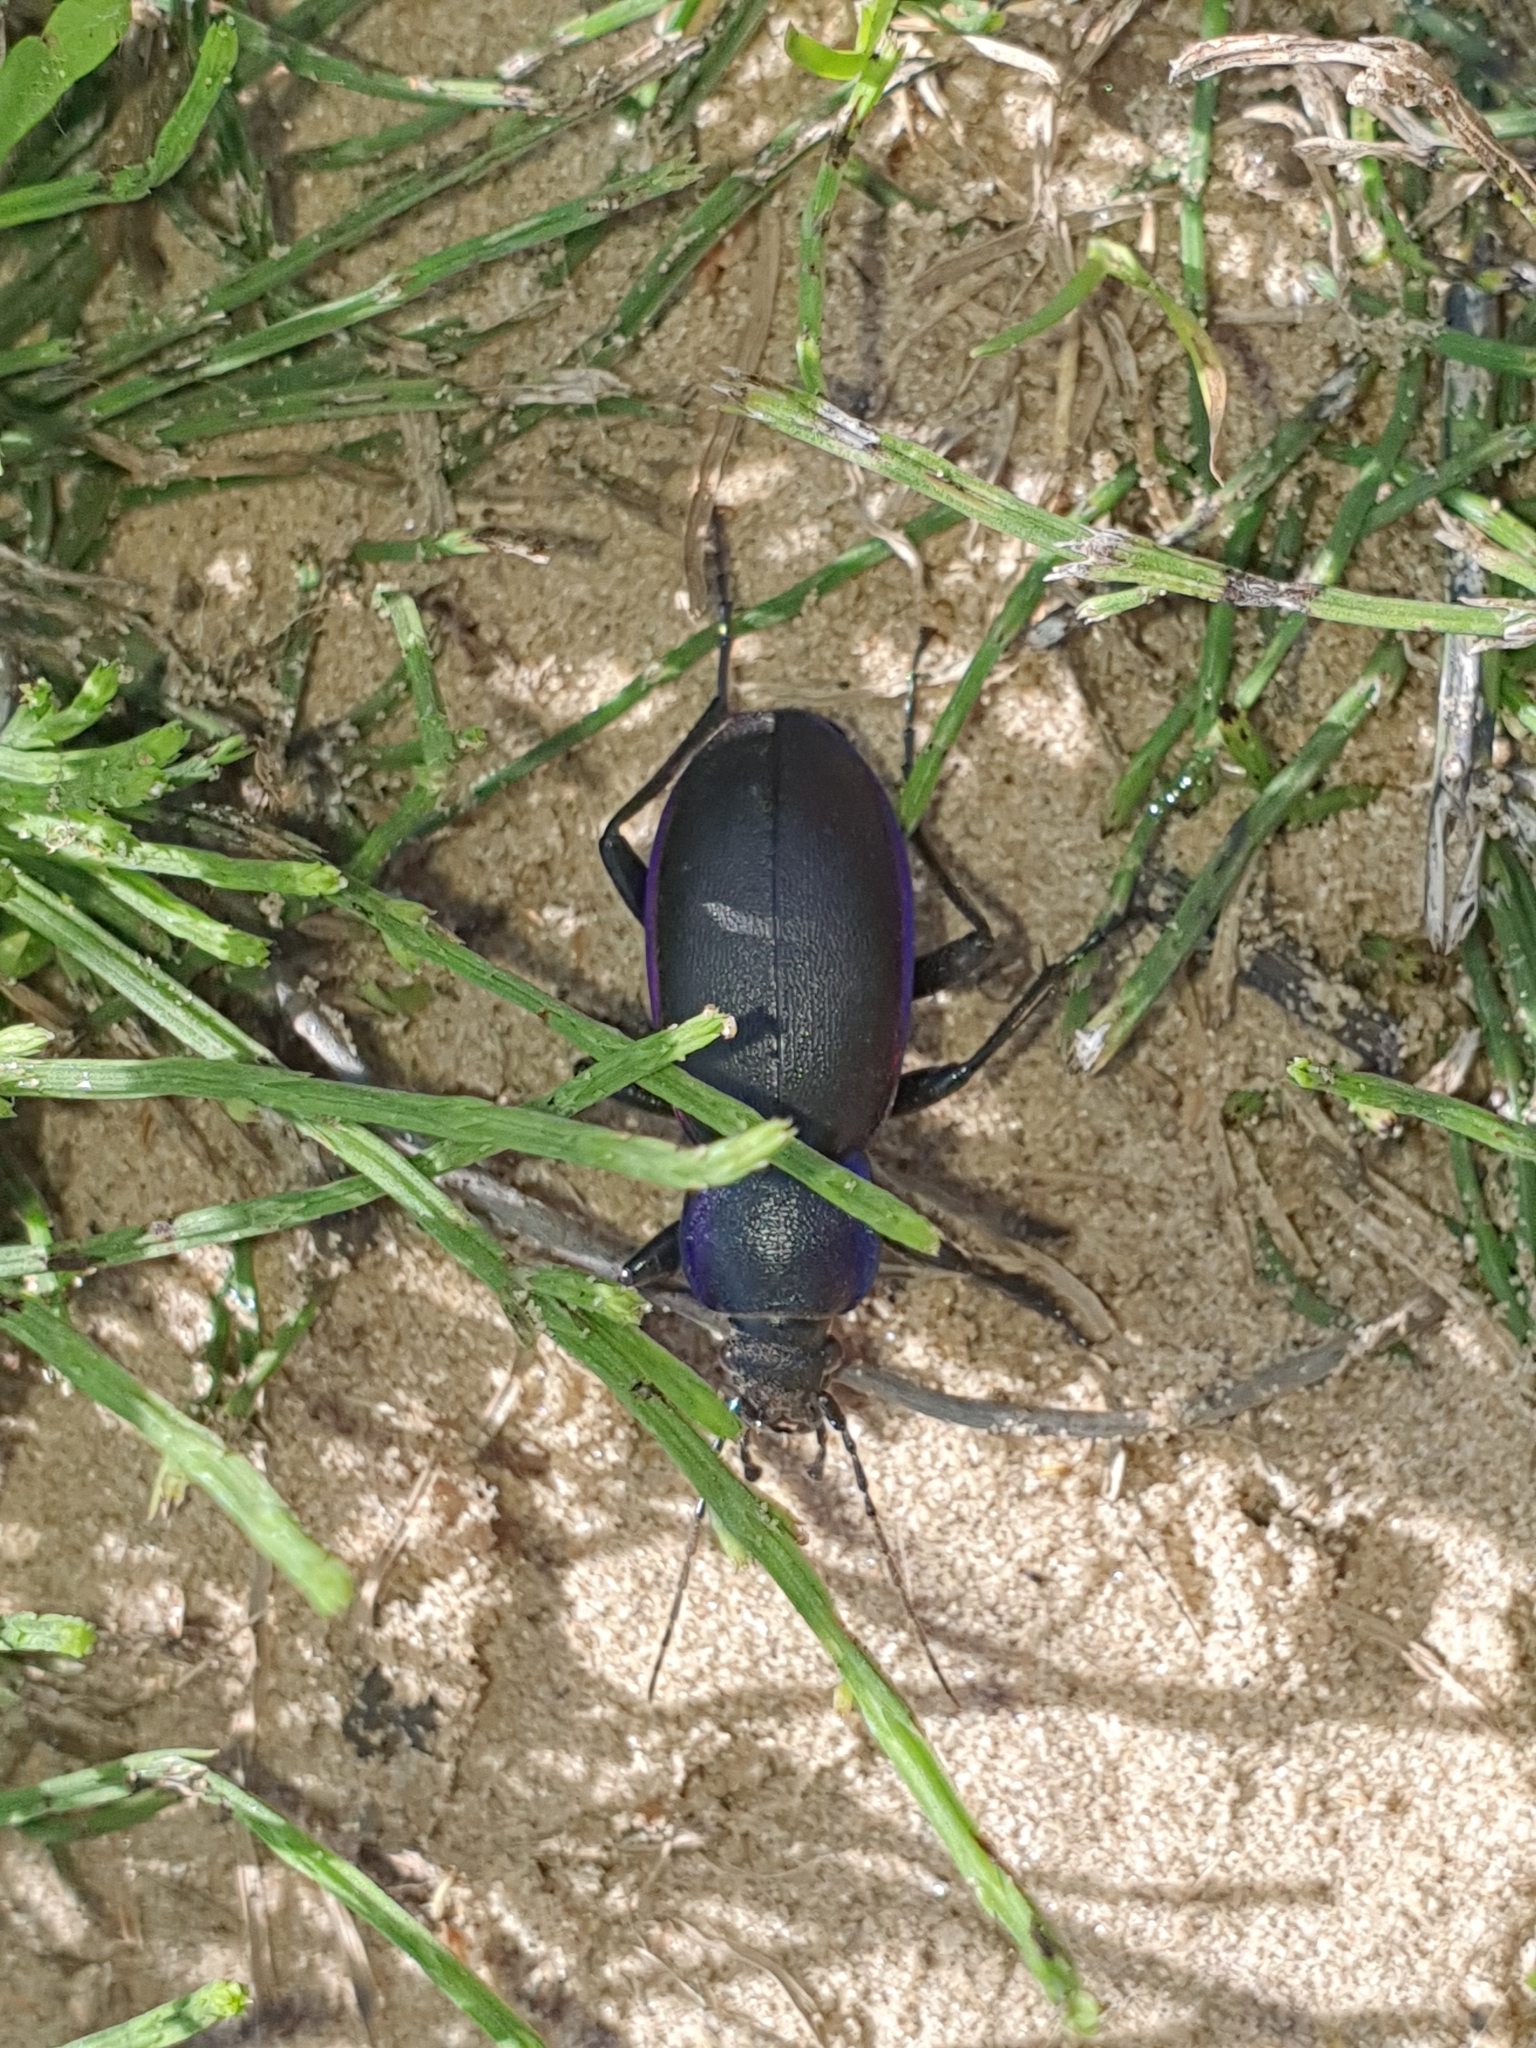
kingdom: Animalia
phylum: Arthropoda
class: Insecta
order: Coleoptera
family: Carabidae
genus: Carabus
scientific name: Carabus violaceus
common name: Violet ground beetle
